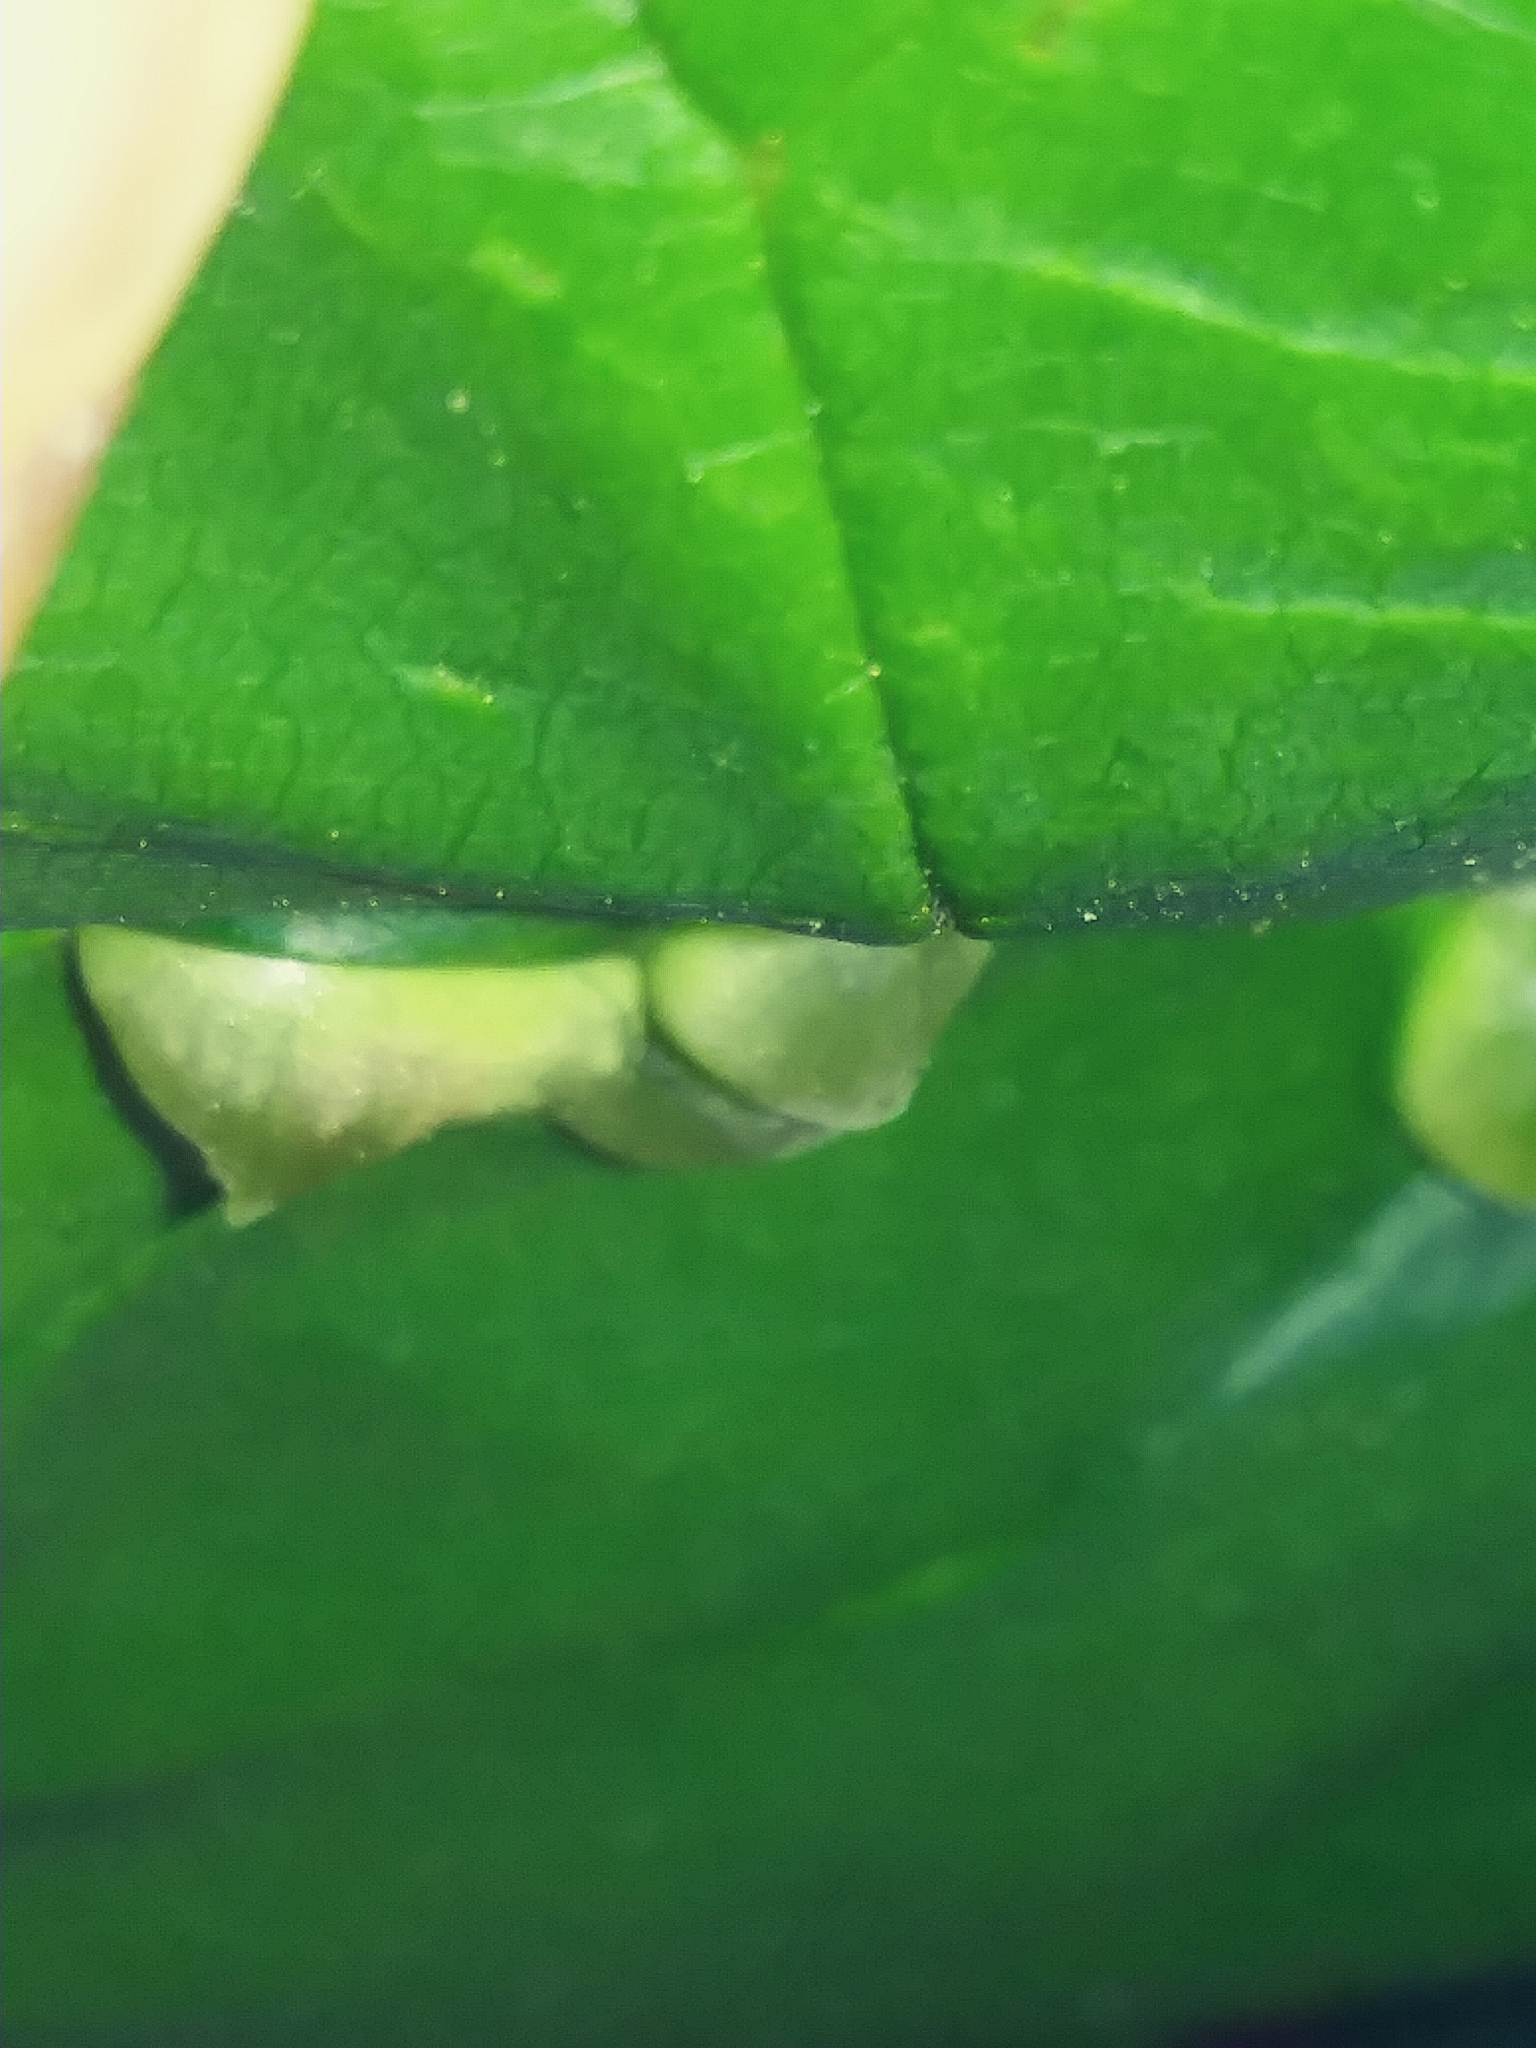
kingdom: Animalia
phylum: Arthropoda
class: Insecta
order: Diptera
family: Cecidomyiidae
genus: Dasineura
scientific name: Dasineura pellex
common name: Ash bullet gall midge
